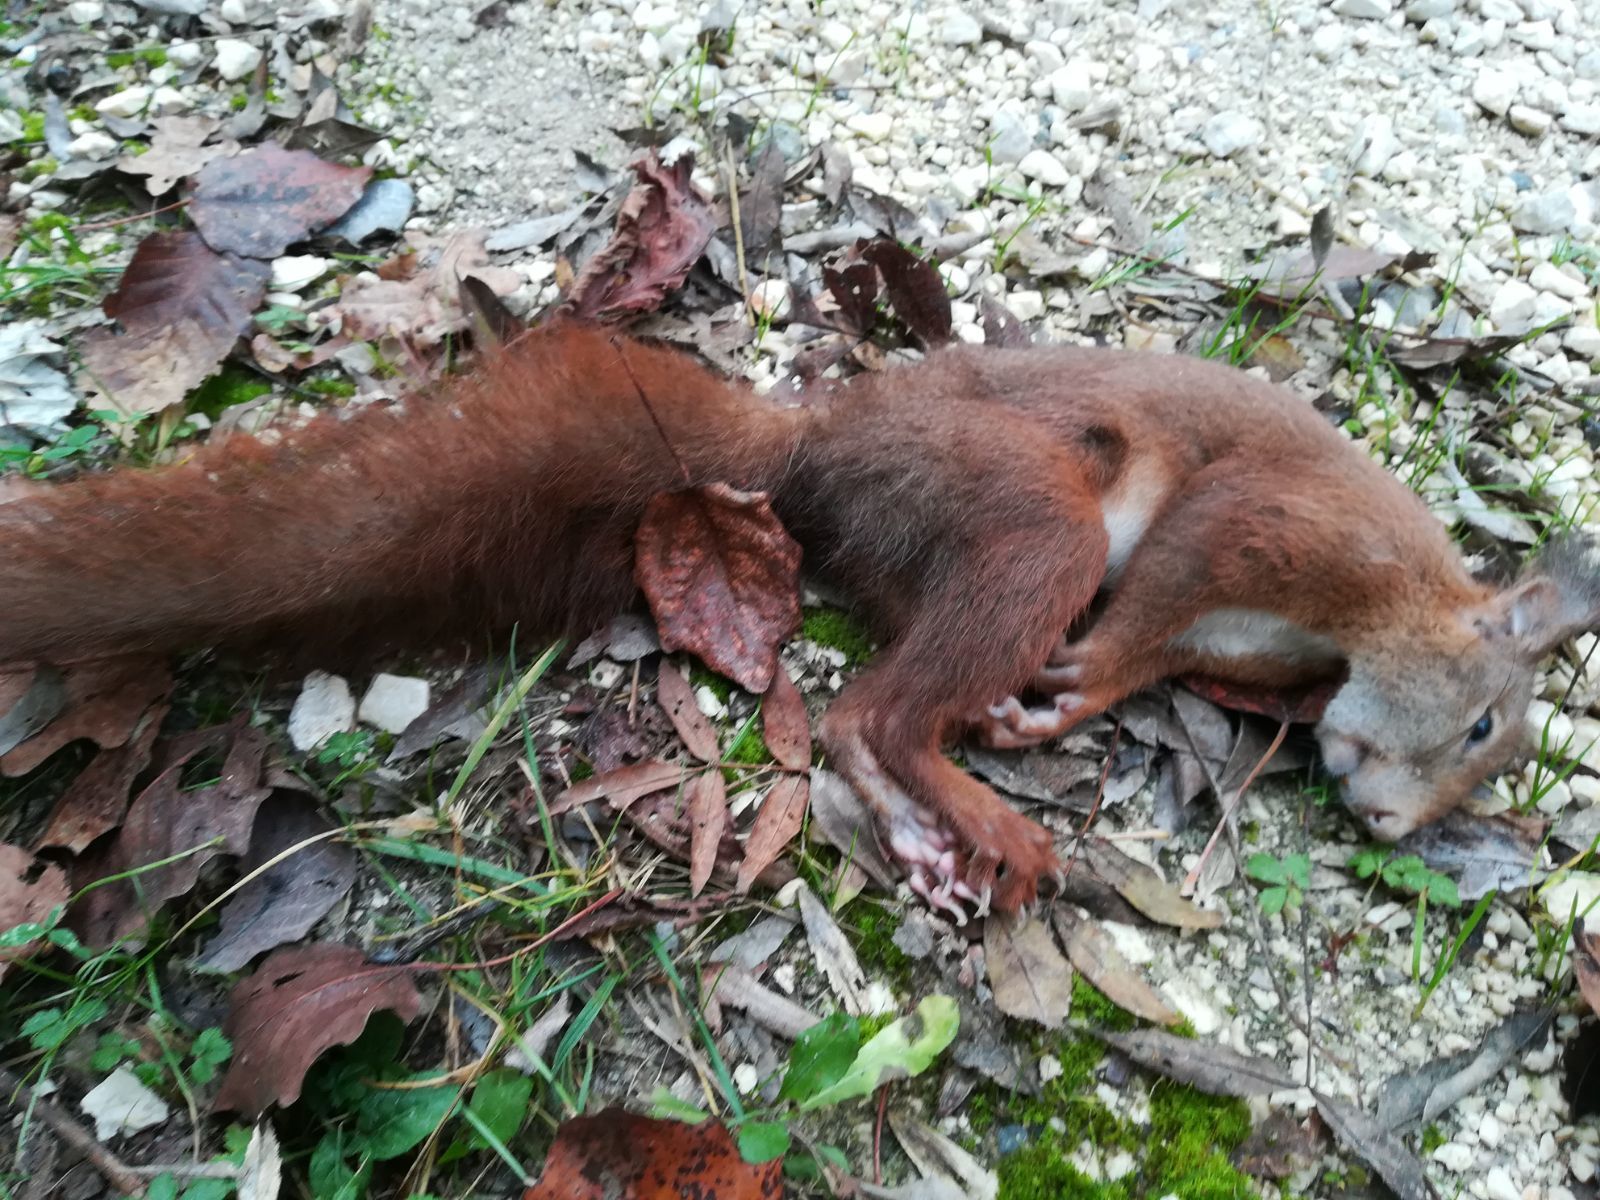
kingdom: Animalia
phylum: Chordata
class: Mammalia
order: Rodentia
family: Sciuridae
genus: Sciurus
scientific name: Sciurus vulgaris
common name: Eurasian red squirrel
